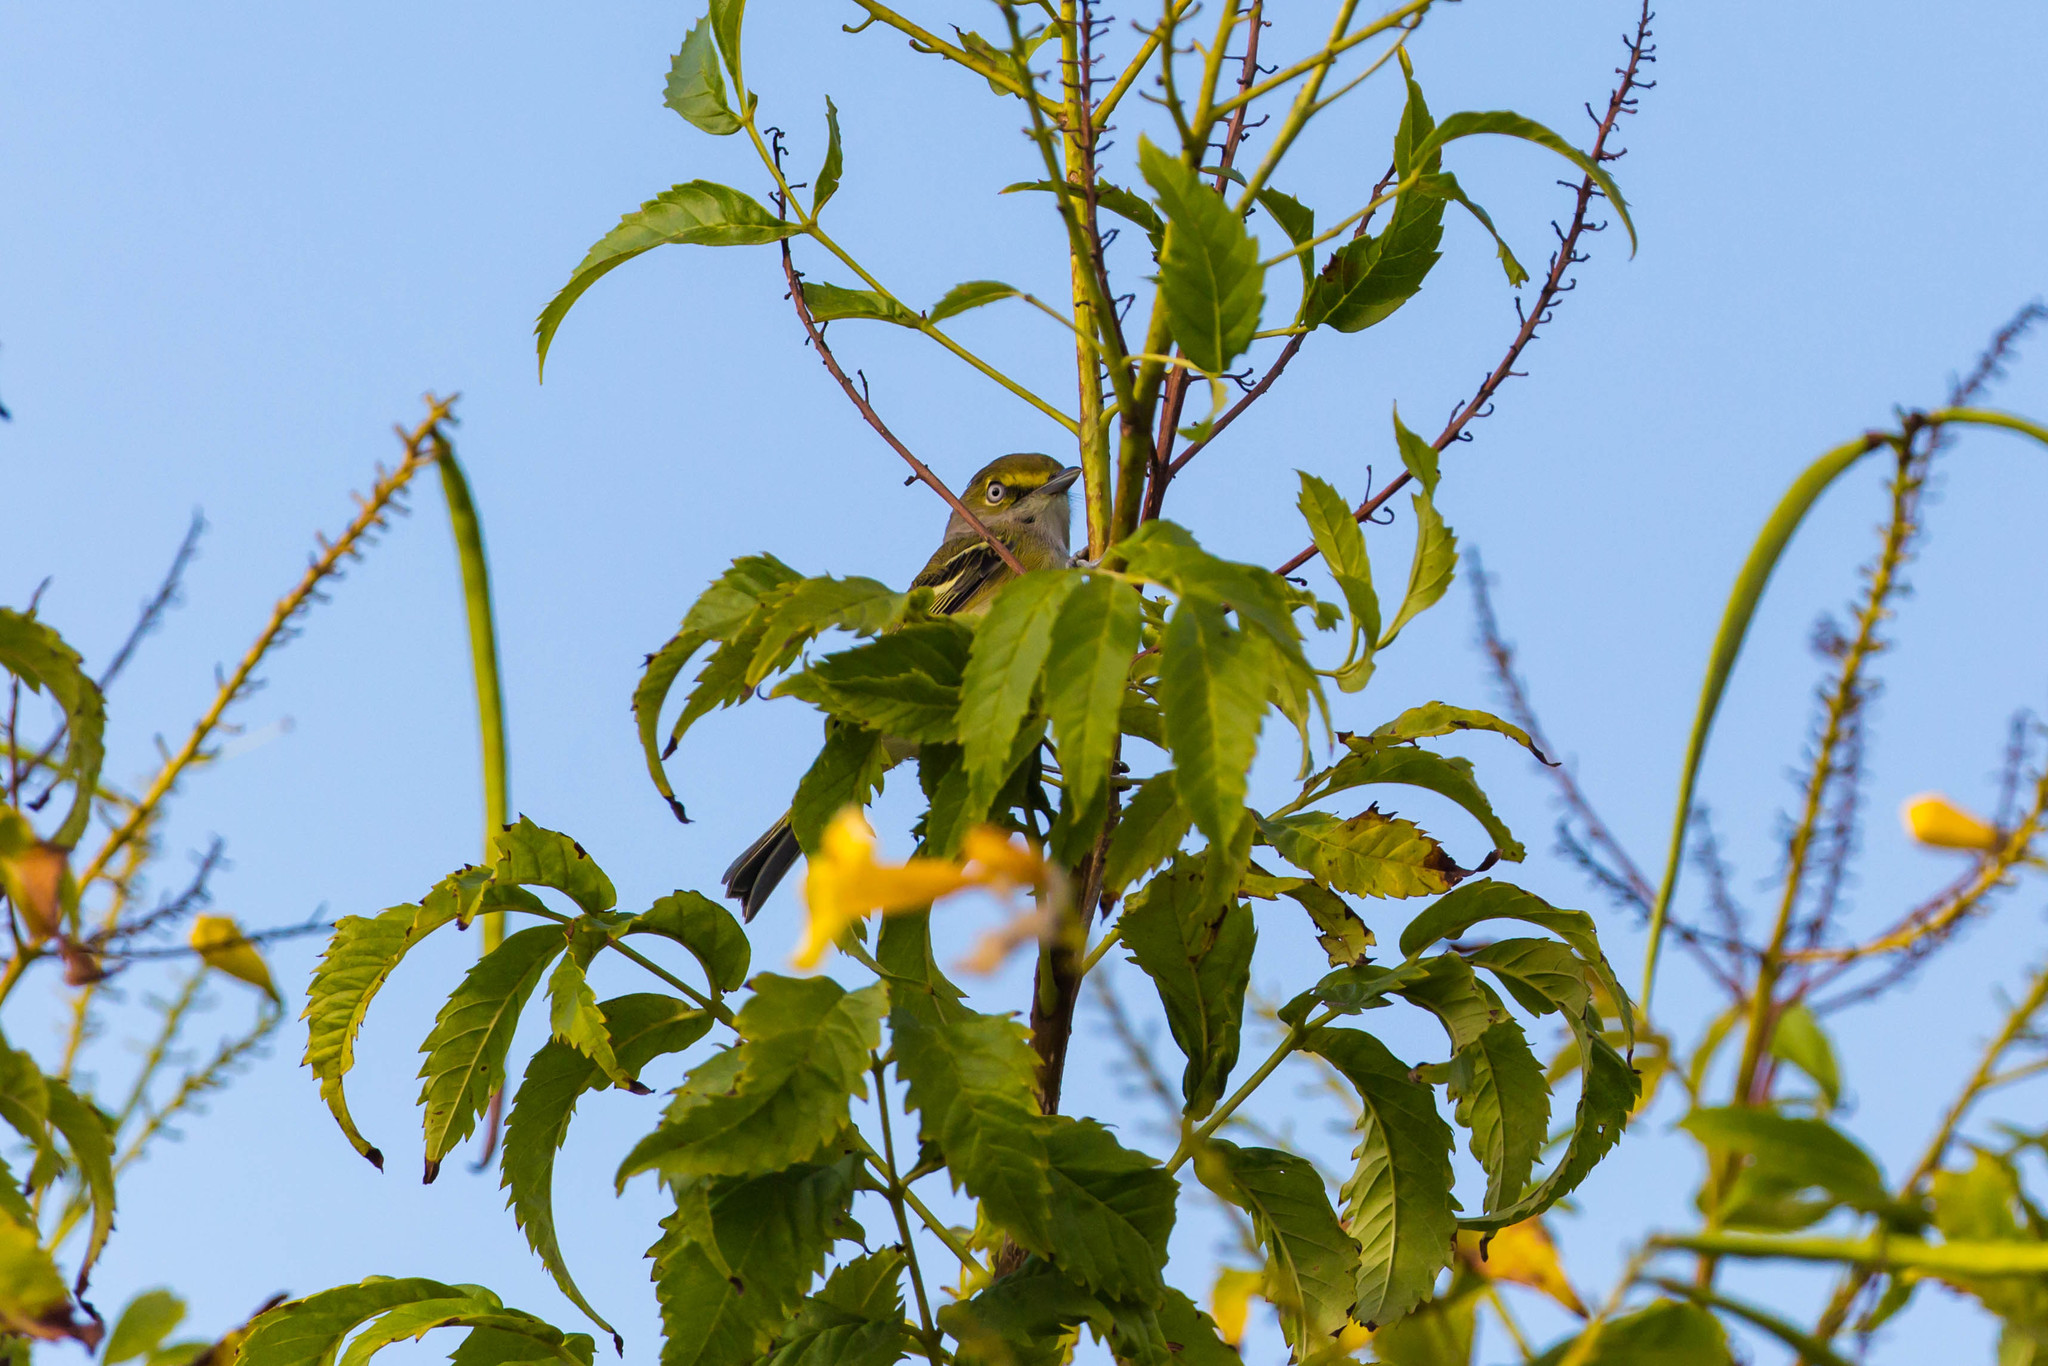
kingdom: Animalia
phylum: Chordata
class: Aves
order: Passeriformes
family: Vireonidae
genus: Vireo
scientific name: Vireo griseus
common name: White-eyed vireo
